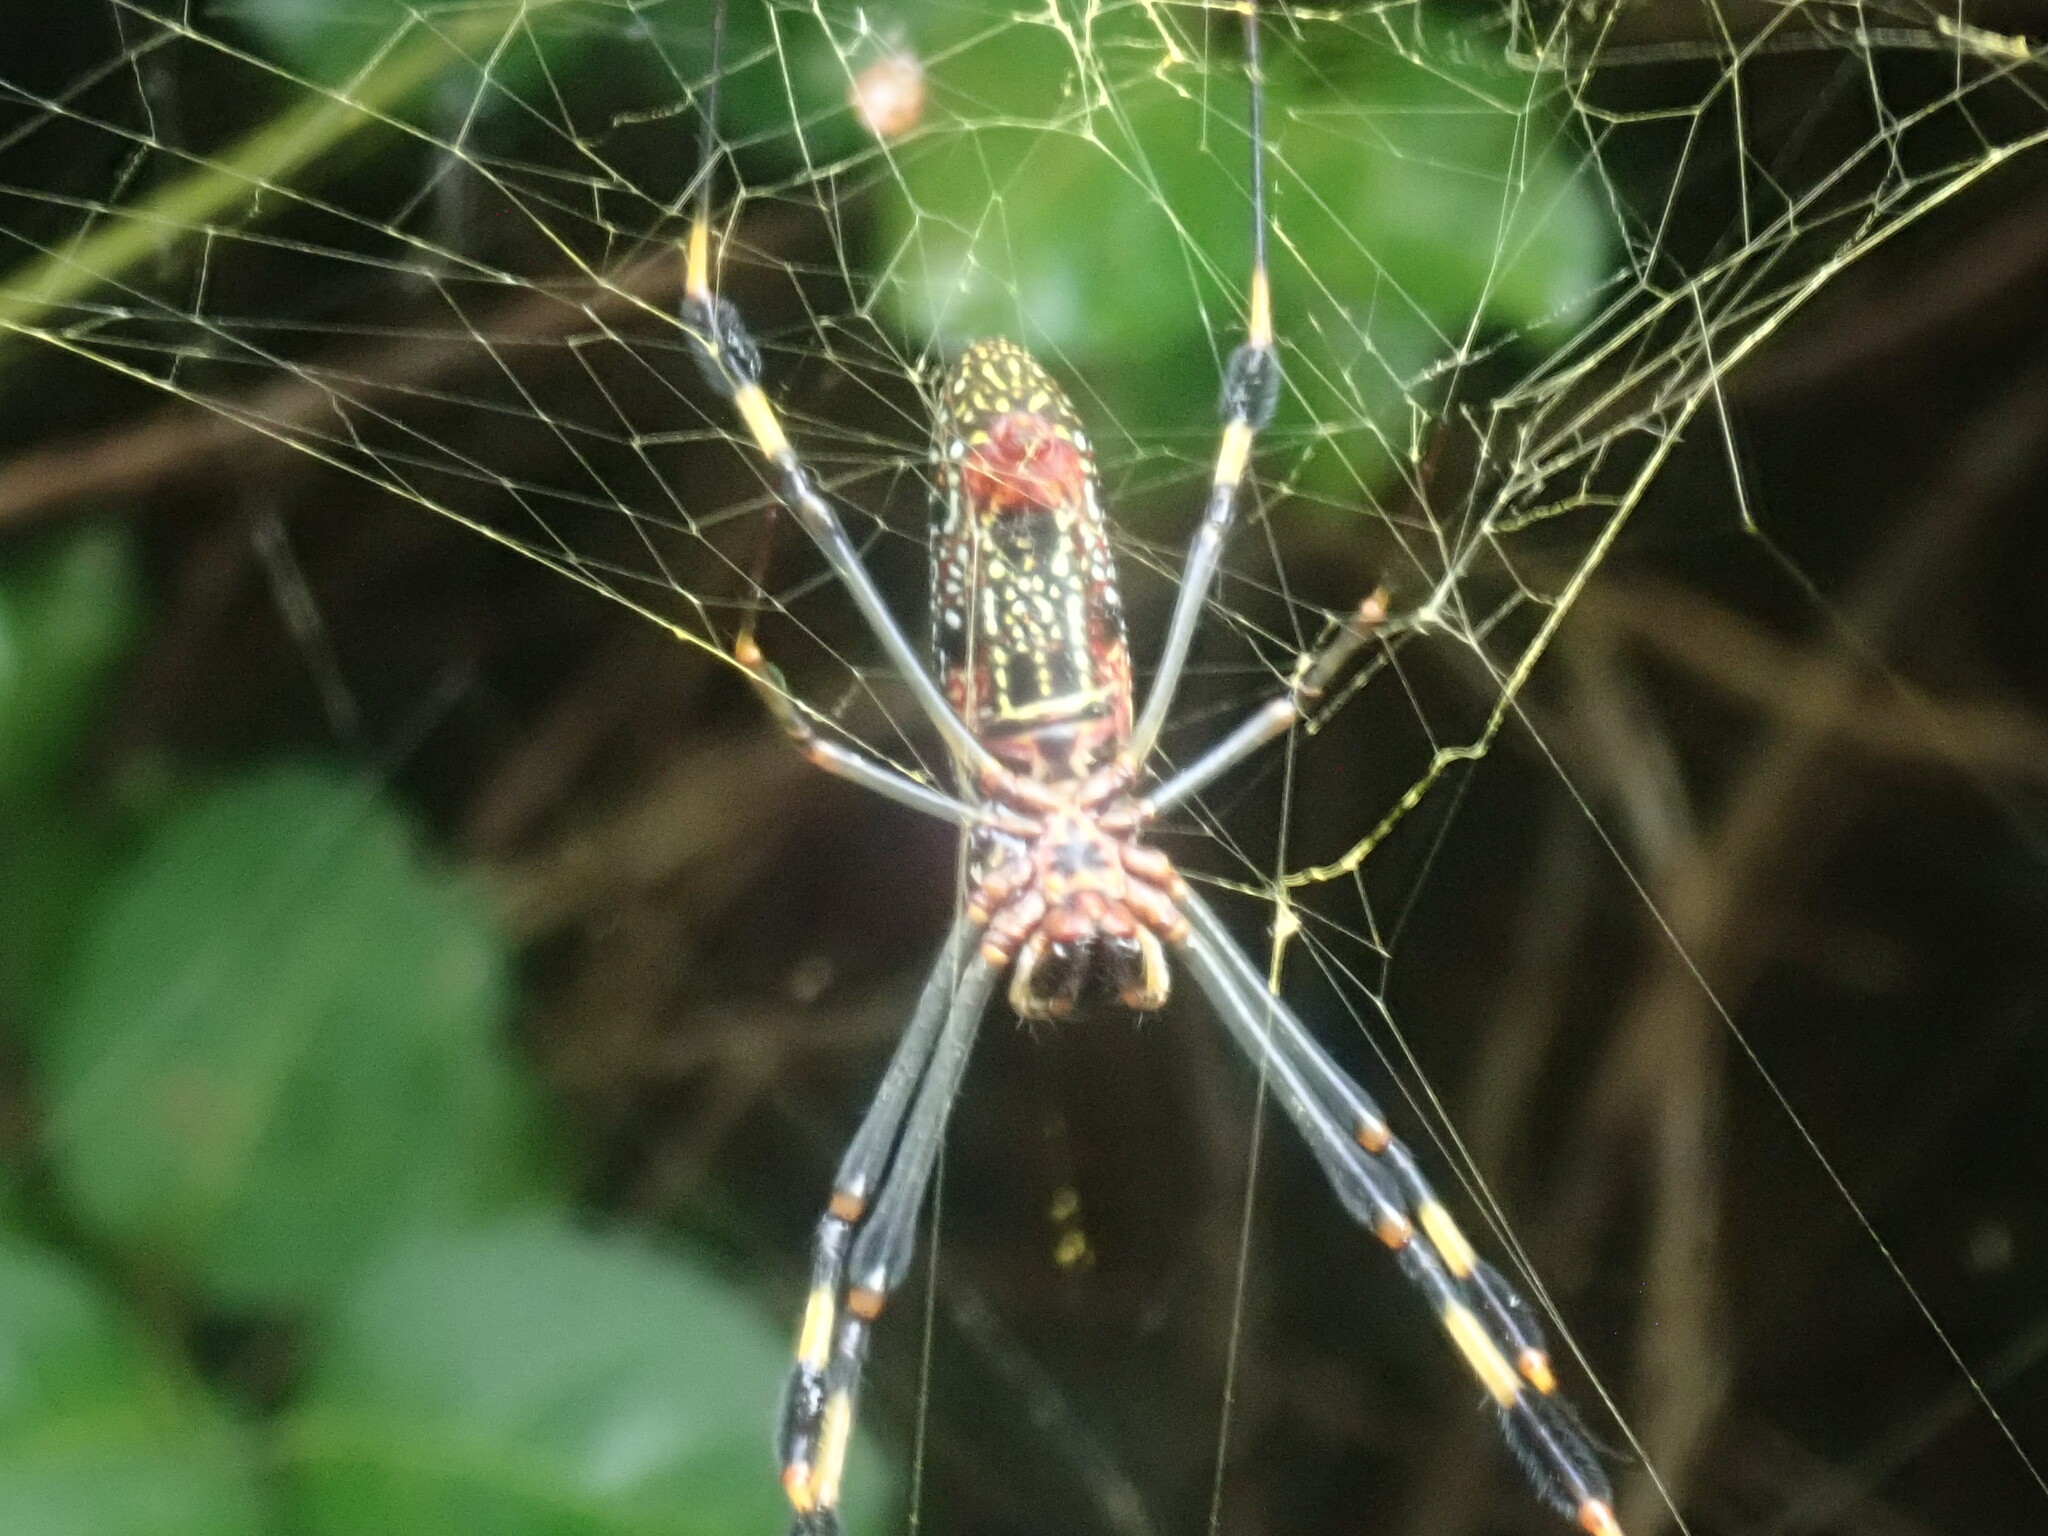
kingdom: Animalia
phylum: Arthropoda
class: Arachnida
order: Araneae
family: Araneidae
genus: Trichonephila
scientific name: Trichonephila clavipes
